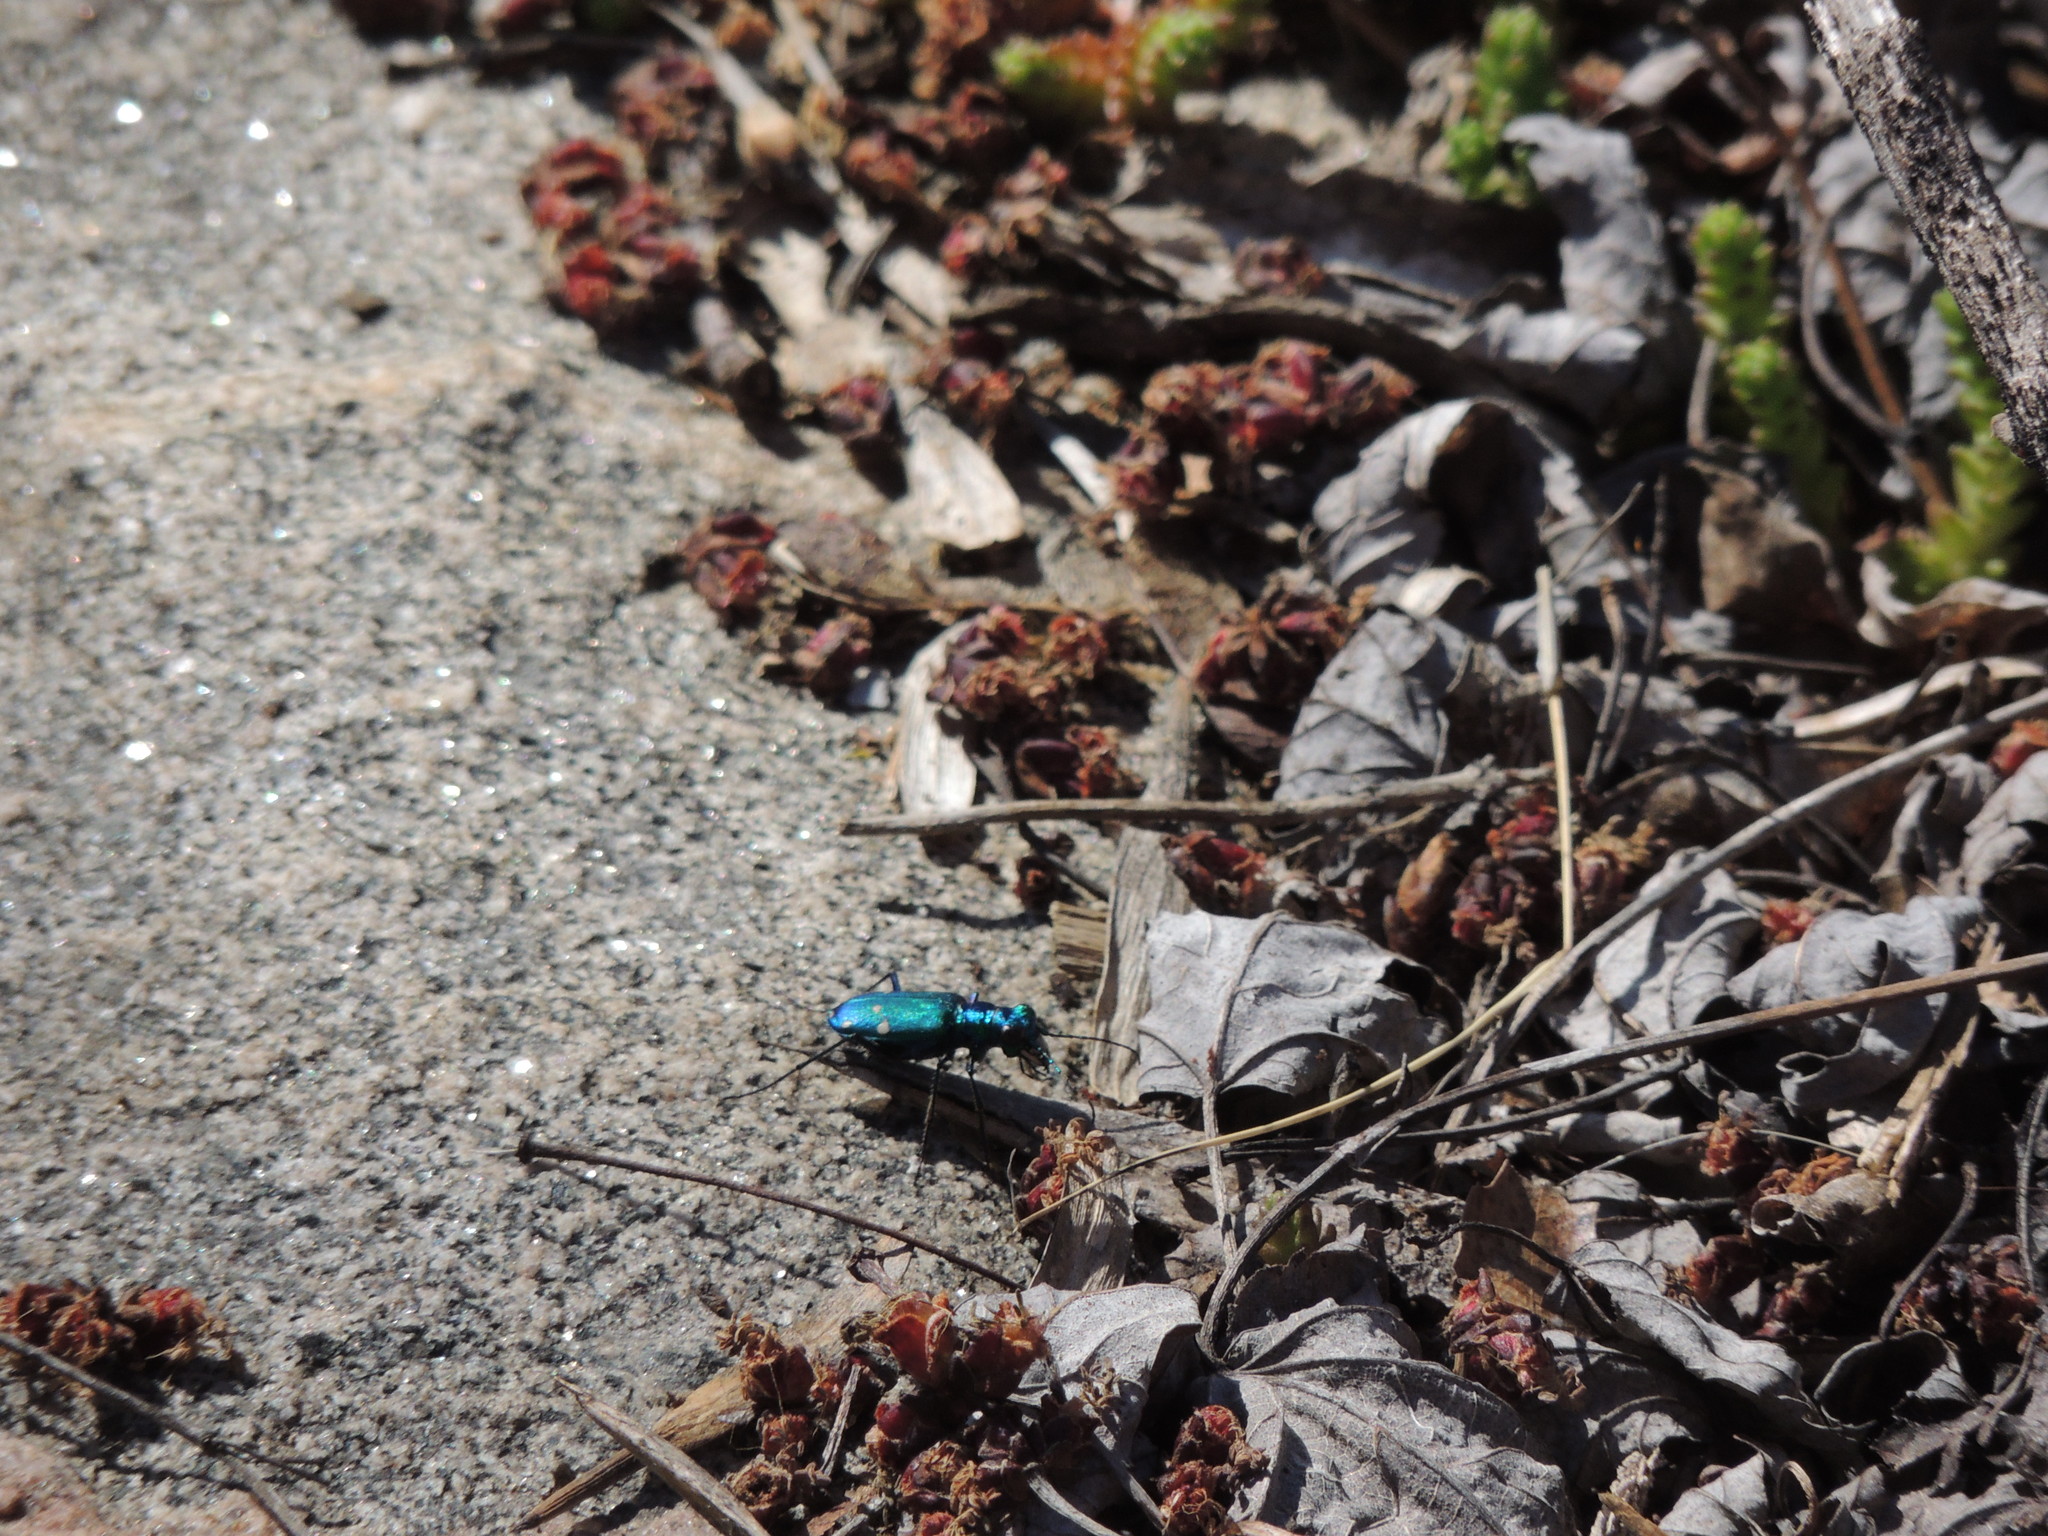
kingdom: Animalia
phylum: Arthropoda
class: Insecta
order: Coleoptera
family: Carabidae
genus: Cicindela
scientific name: Cicindela sexguttata
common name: Six-spotted tiger beetle
